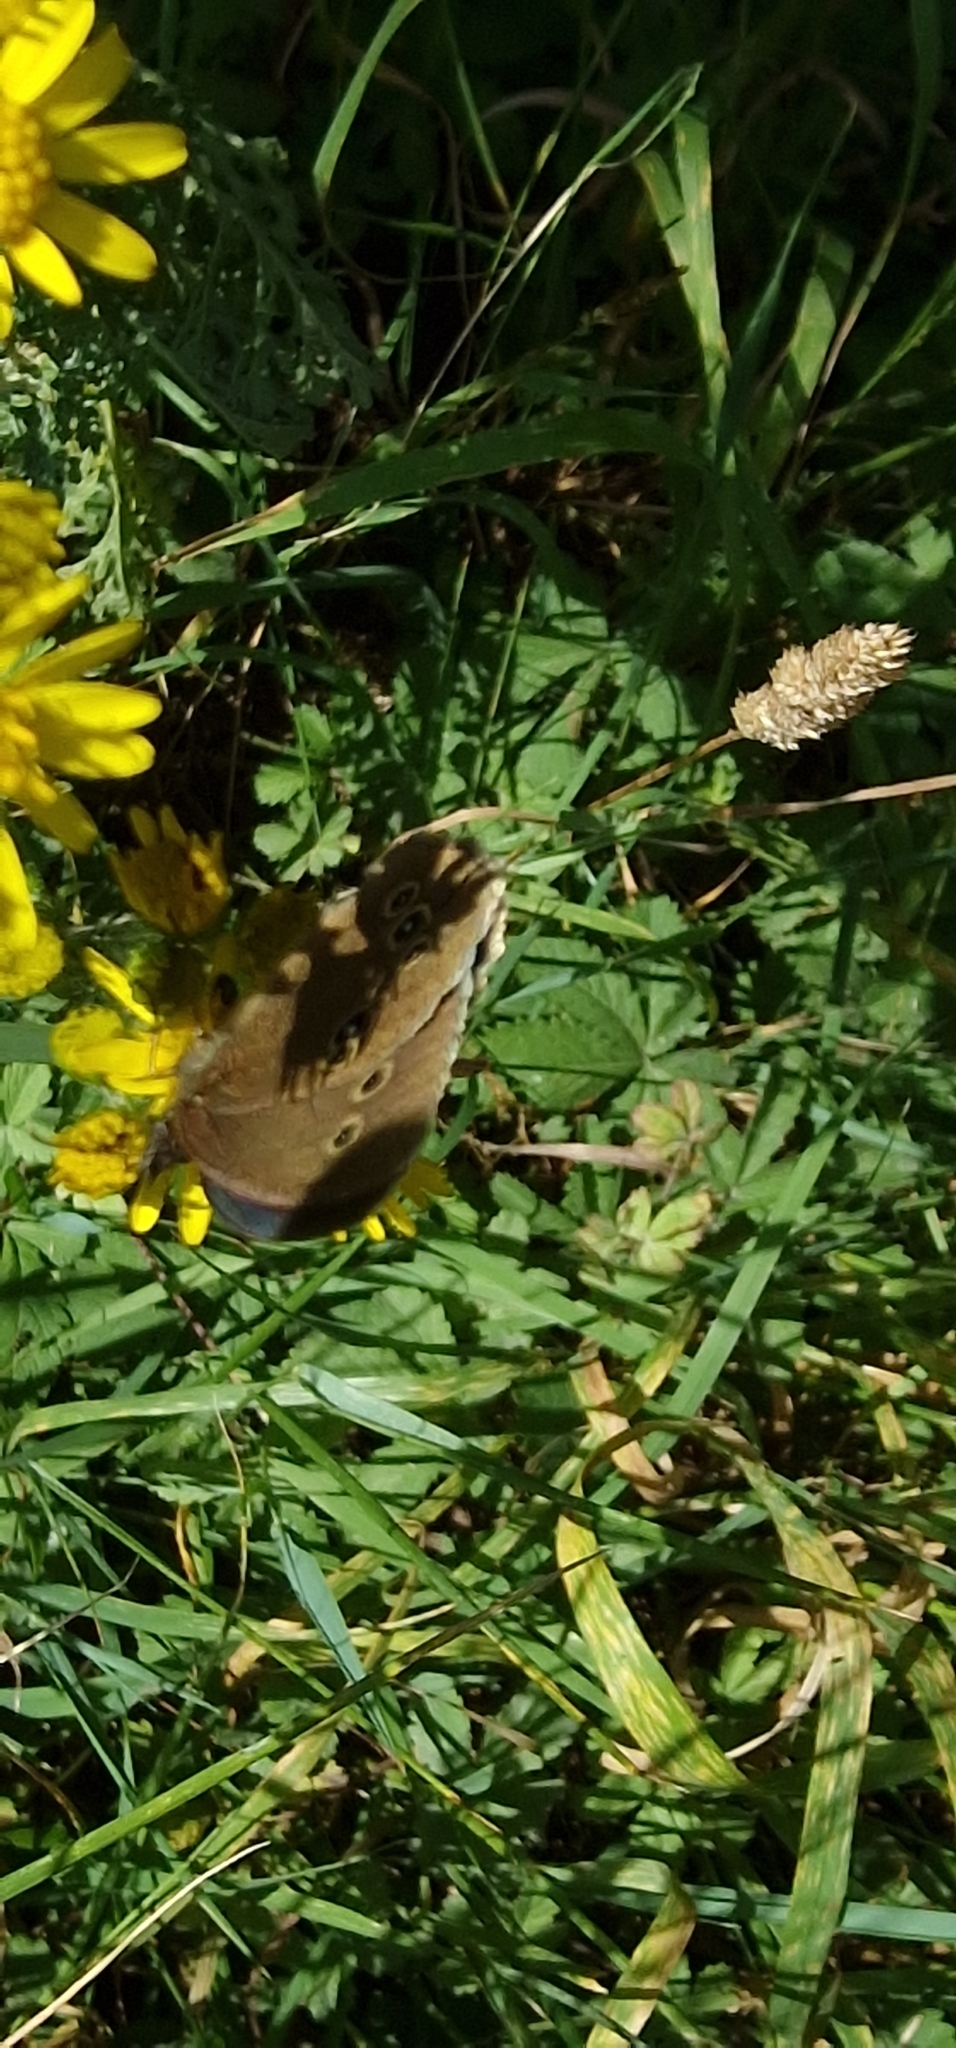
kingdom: Animalia
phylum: Arthropoda
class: Insecta
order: Lepidoptera
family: Nymphalidae
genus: Aphantopus
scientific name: Aphantopus hyperantus
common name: Ringlet
